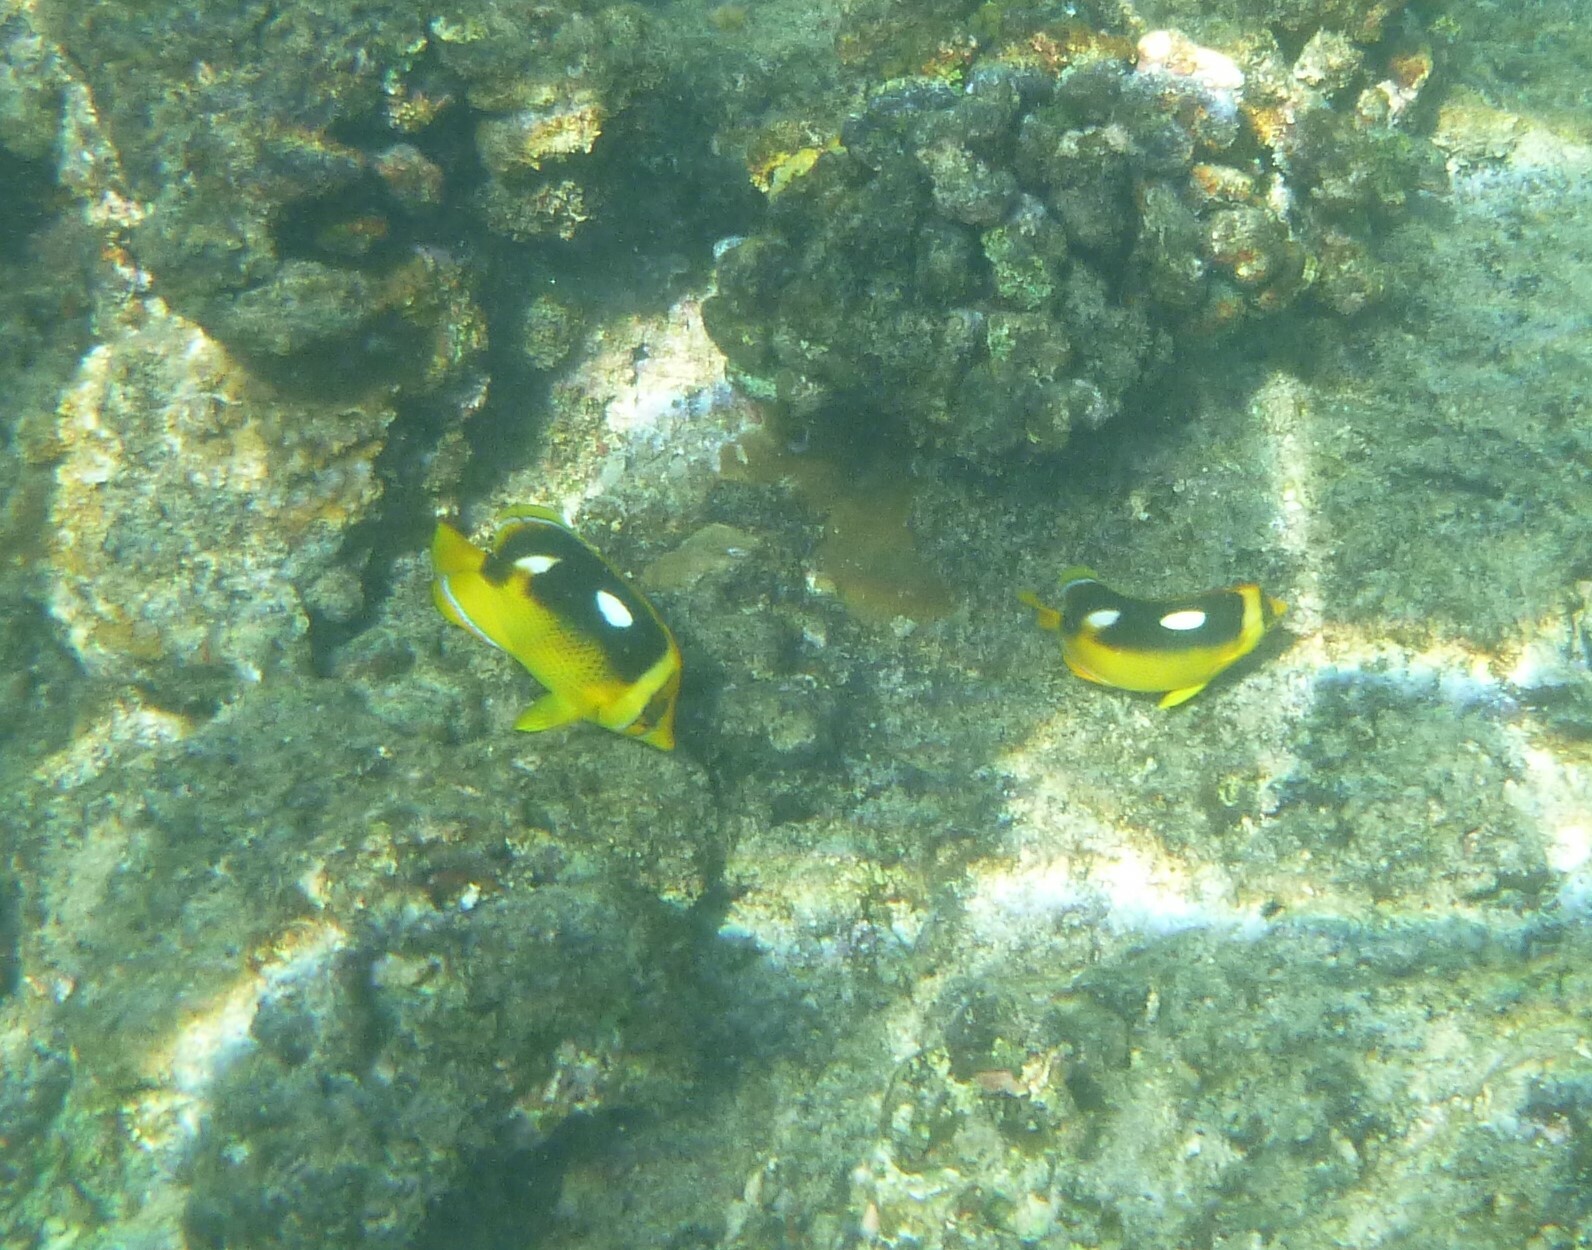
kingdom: Animalia
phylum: Chordata
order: Perciformes
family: Chaetodontidae
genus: Chaetodon
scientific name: Chaetodon quadrimaculatus
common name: Fourspot butterflyfish
